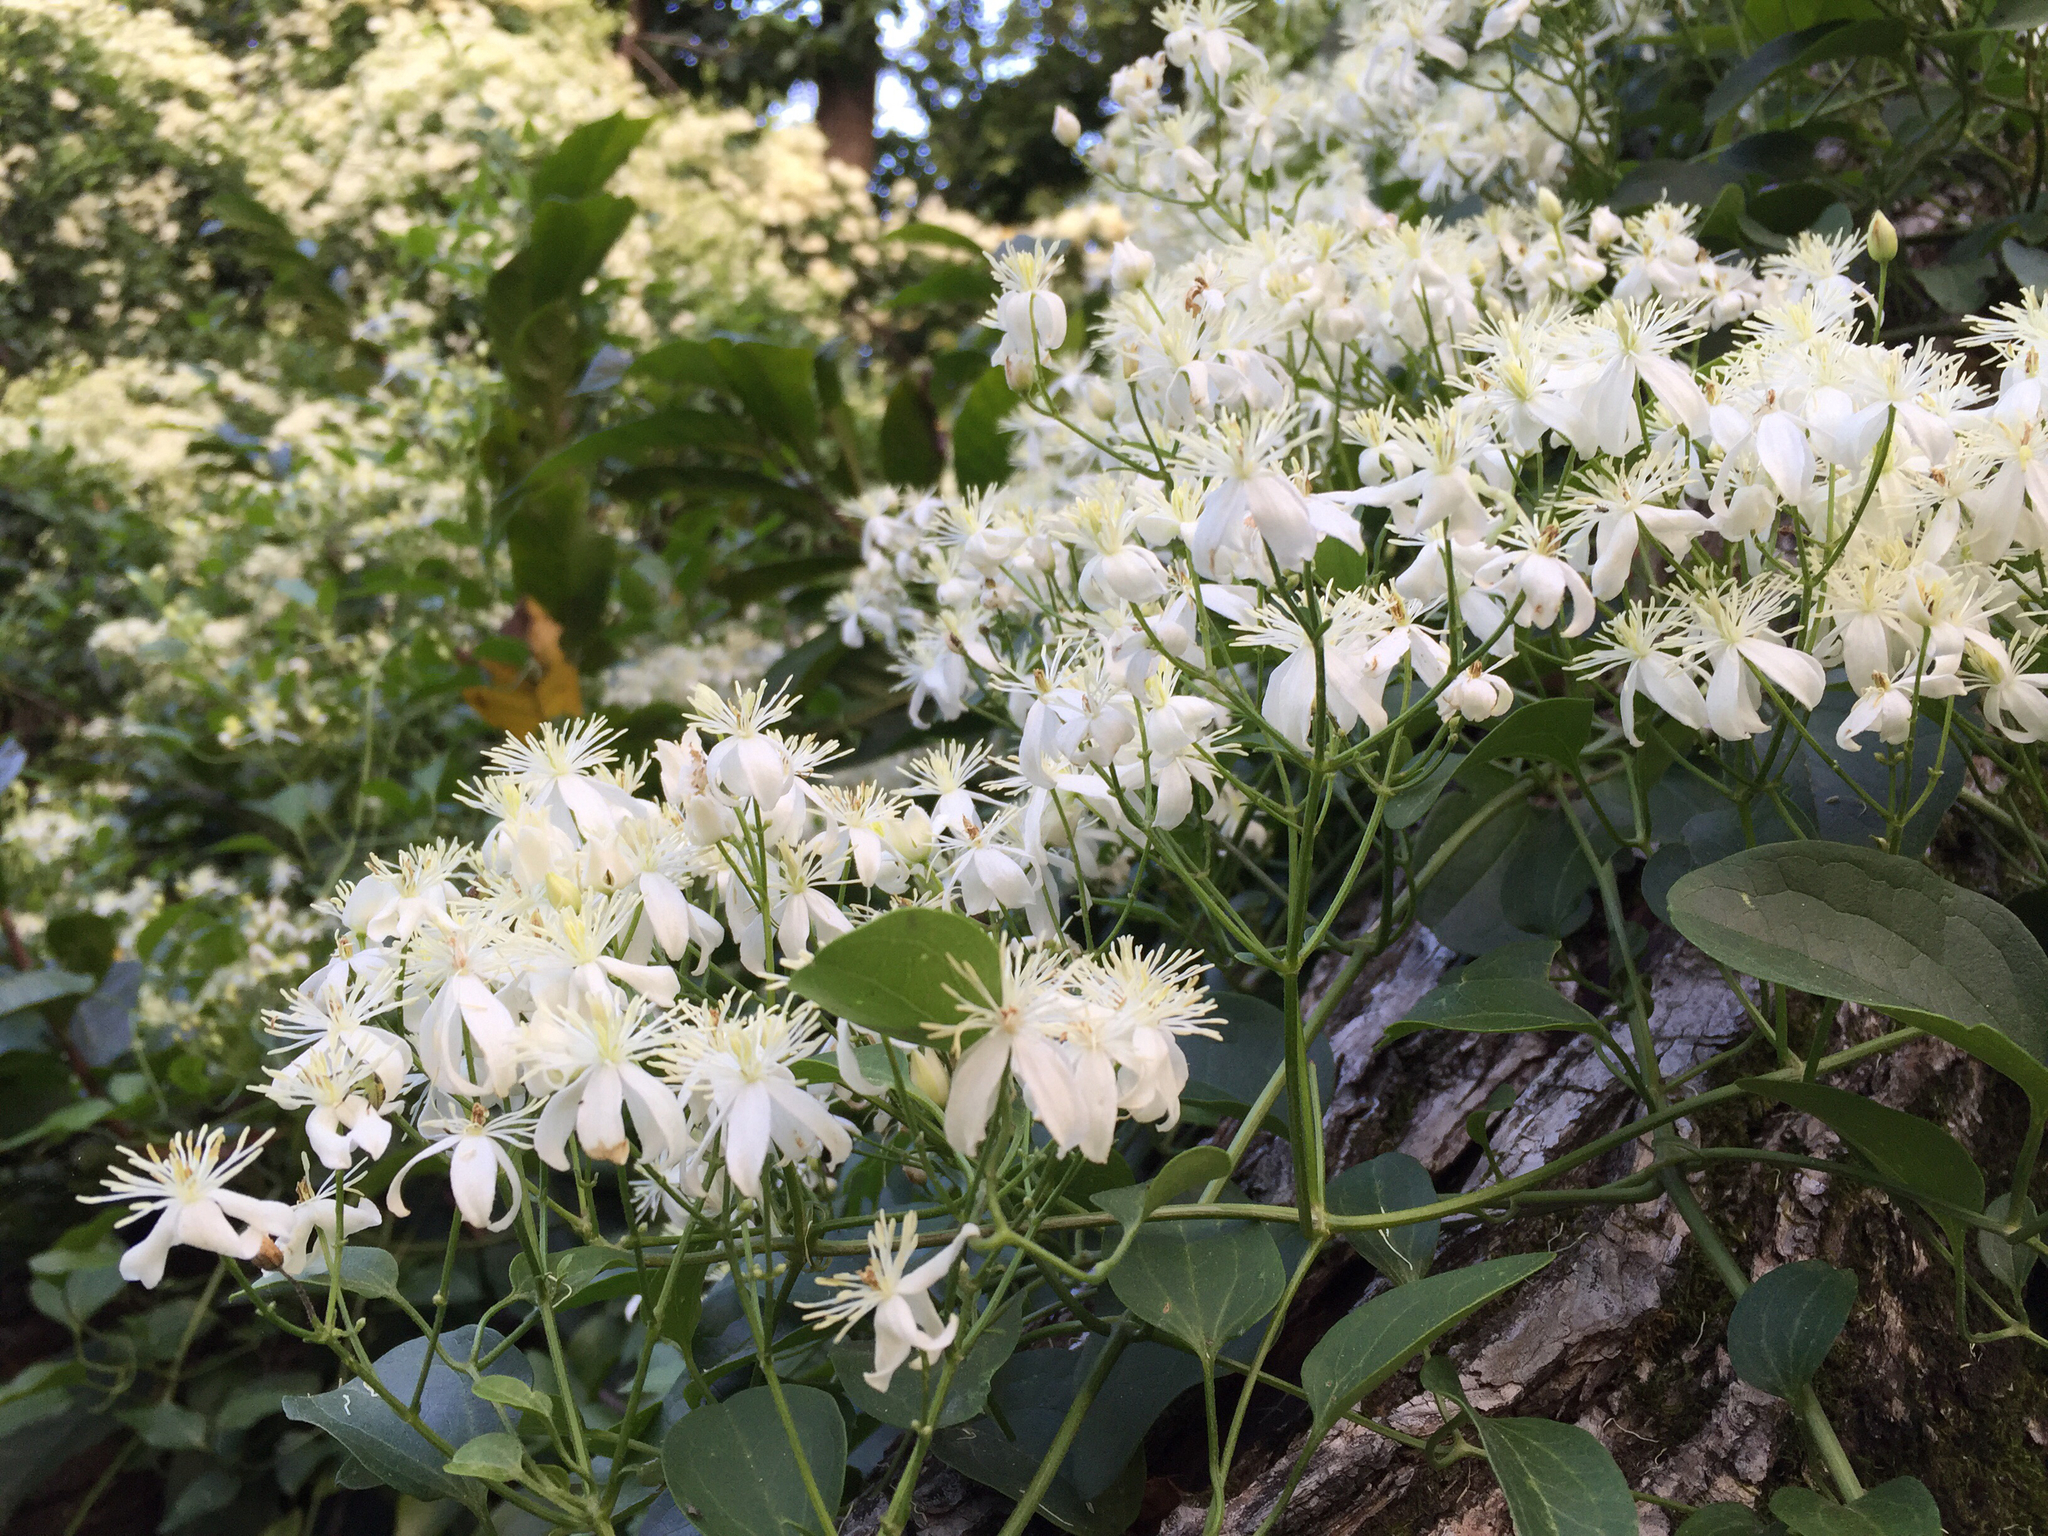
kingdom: Plantae
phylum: Tracheophyta
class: Magnoliopsida
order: Ranunculales
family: Ranunculaceae
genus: Clematis
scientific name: Clematis terniflora
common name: Sweet autumn clematis
